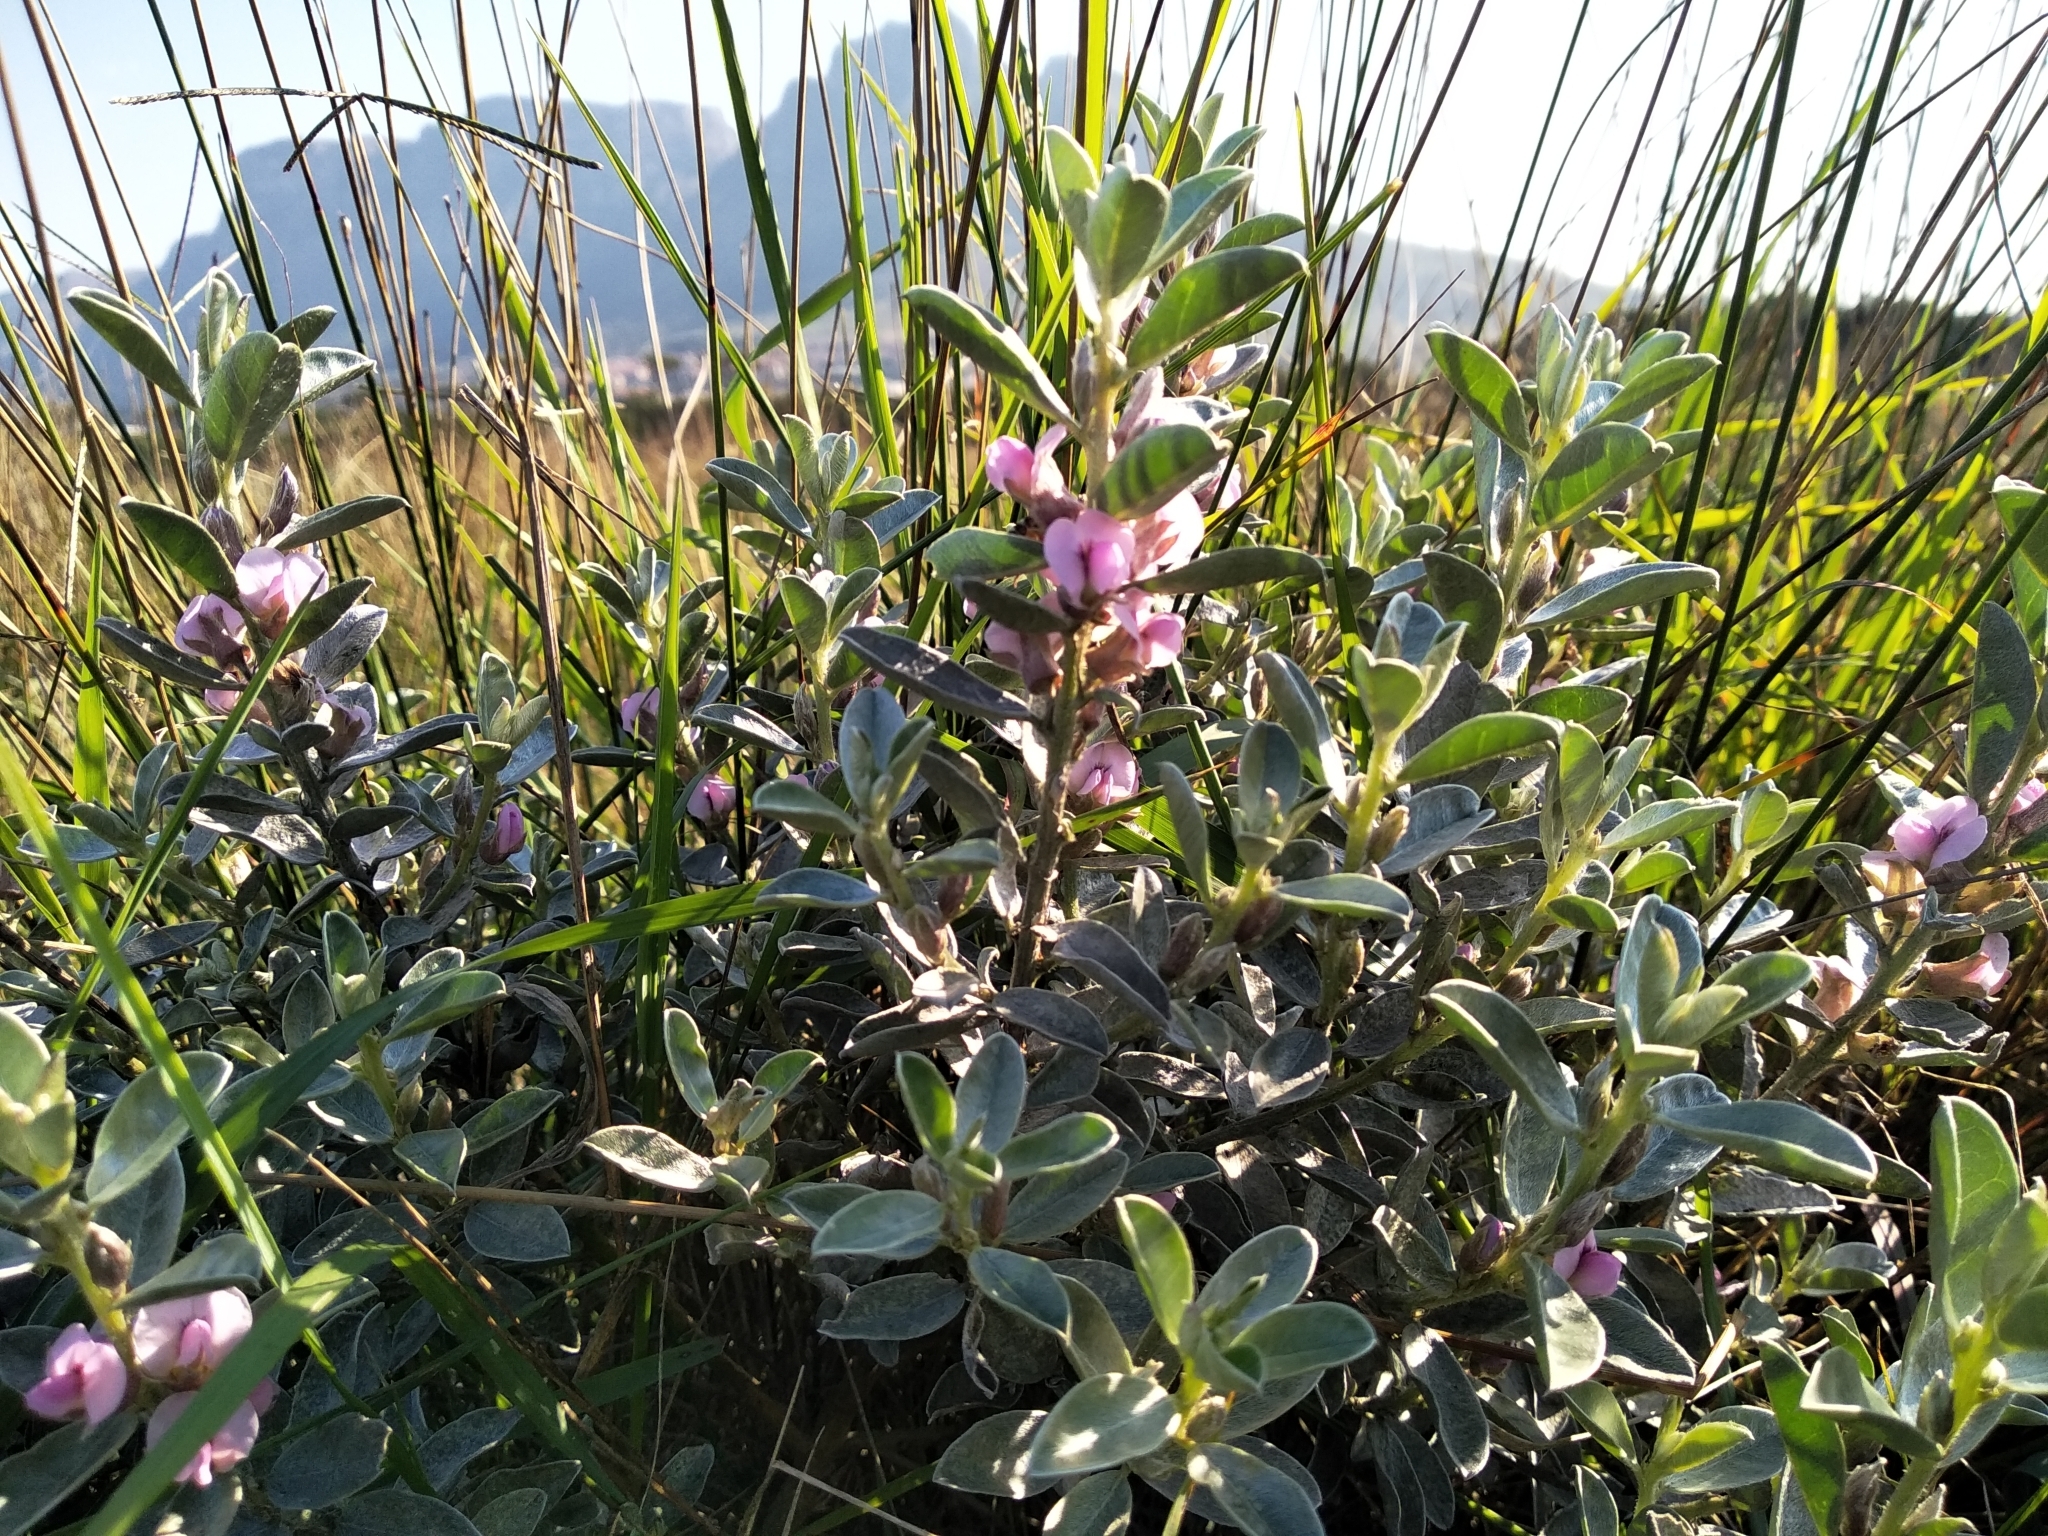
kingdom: Plantae
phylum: Tracheophyta
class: Magnoliopsida
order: Fabales
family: Fabaceae
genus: Podalyria
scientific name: Podalyria sericea
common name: Silver podalyria
